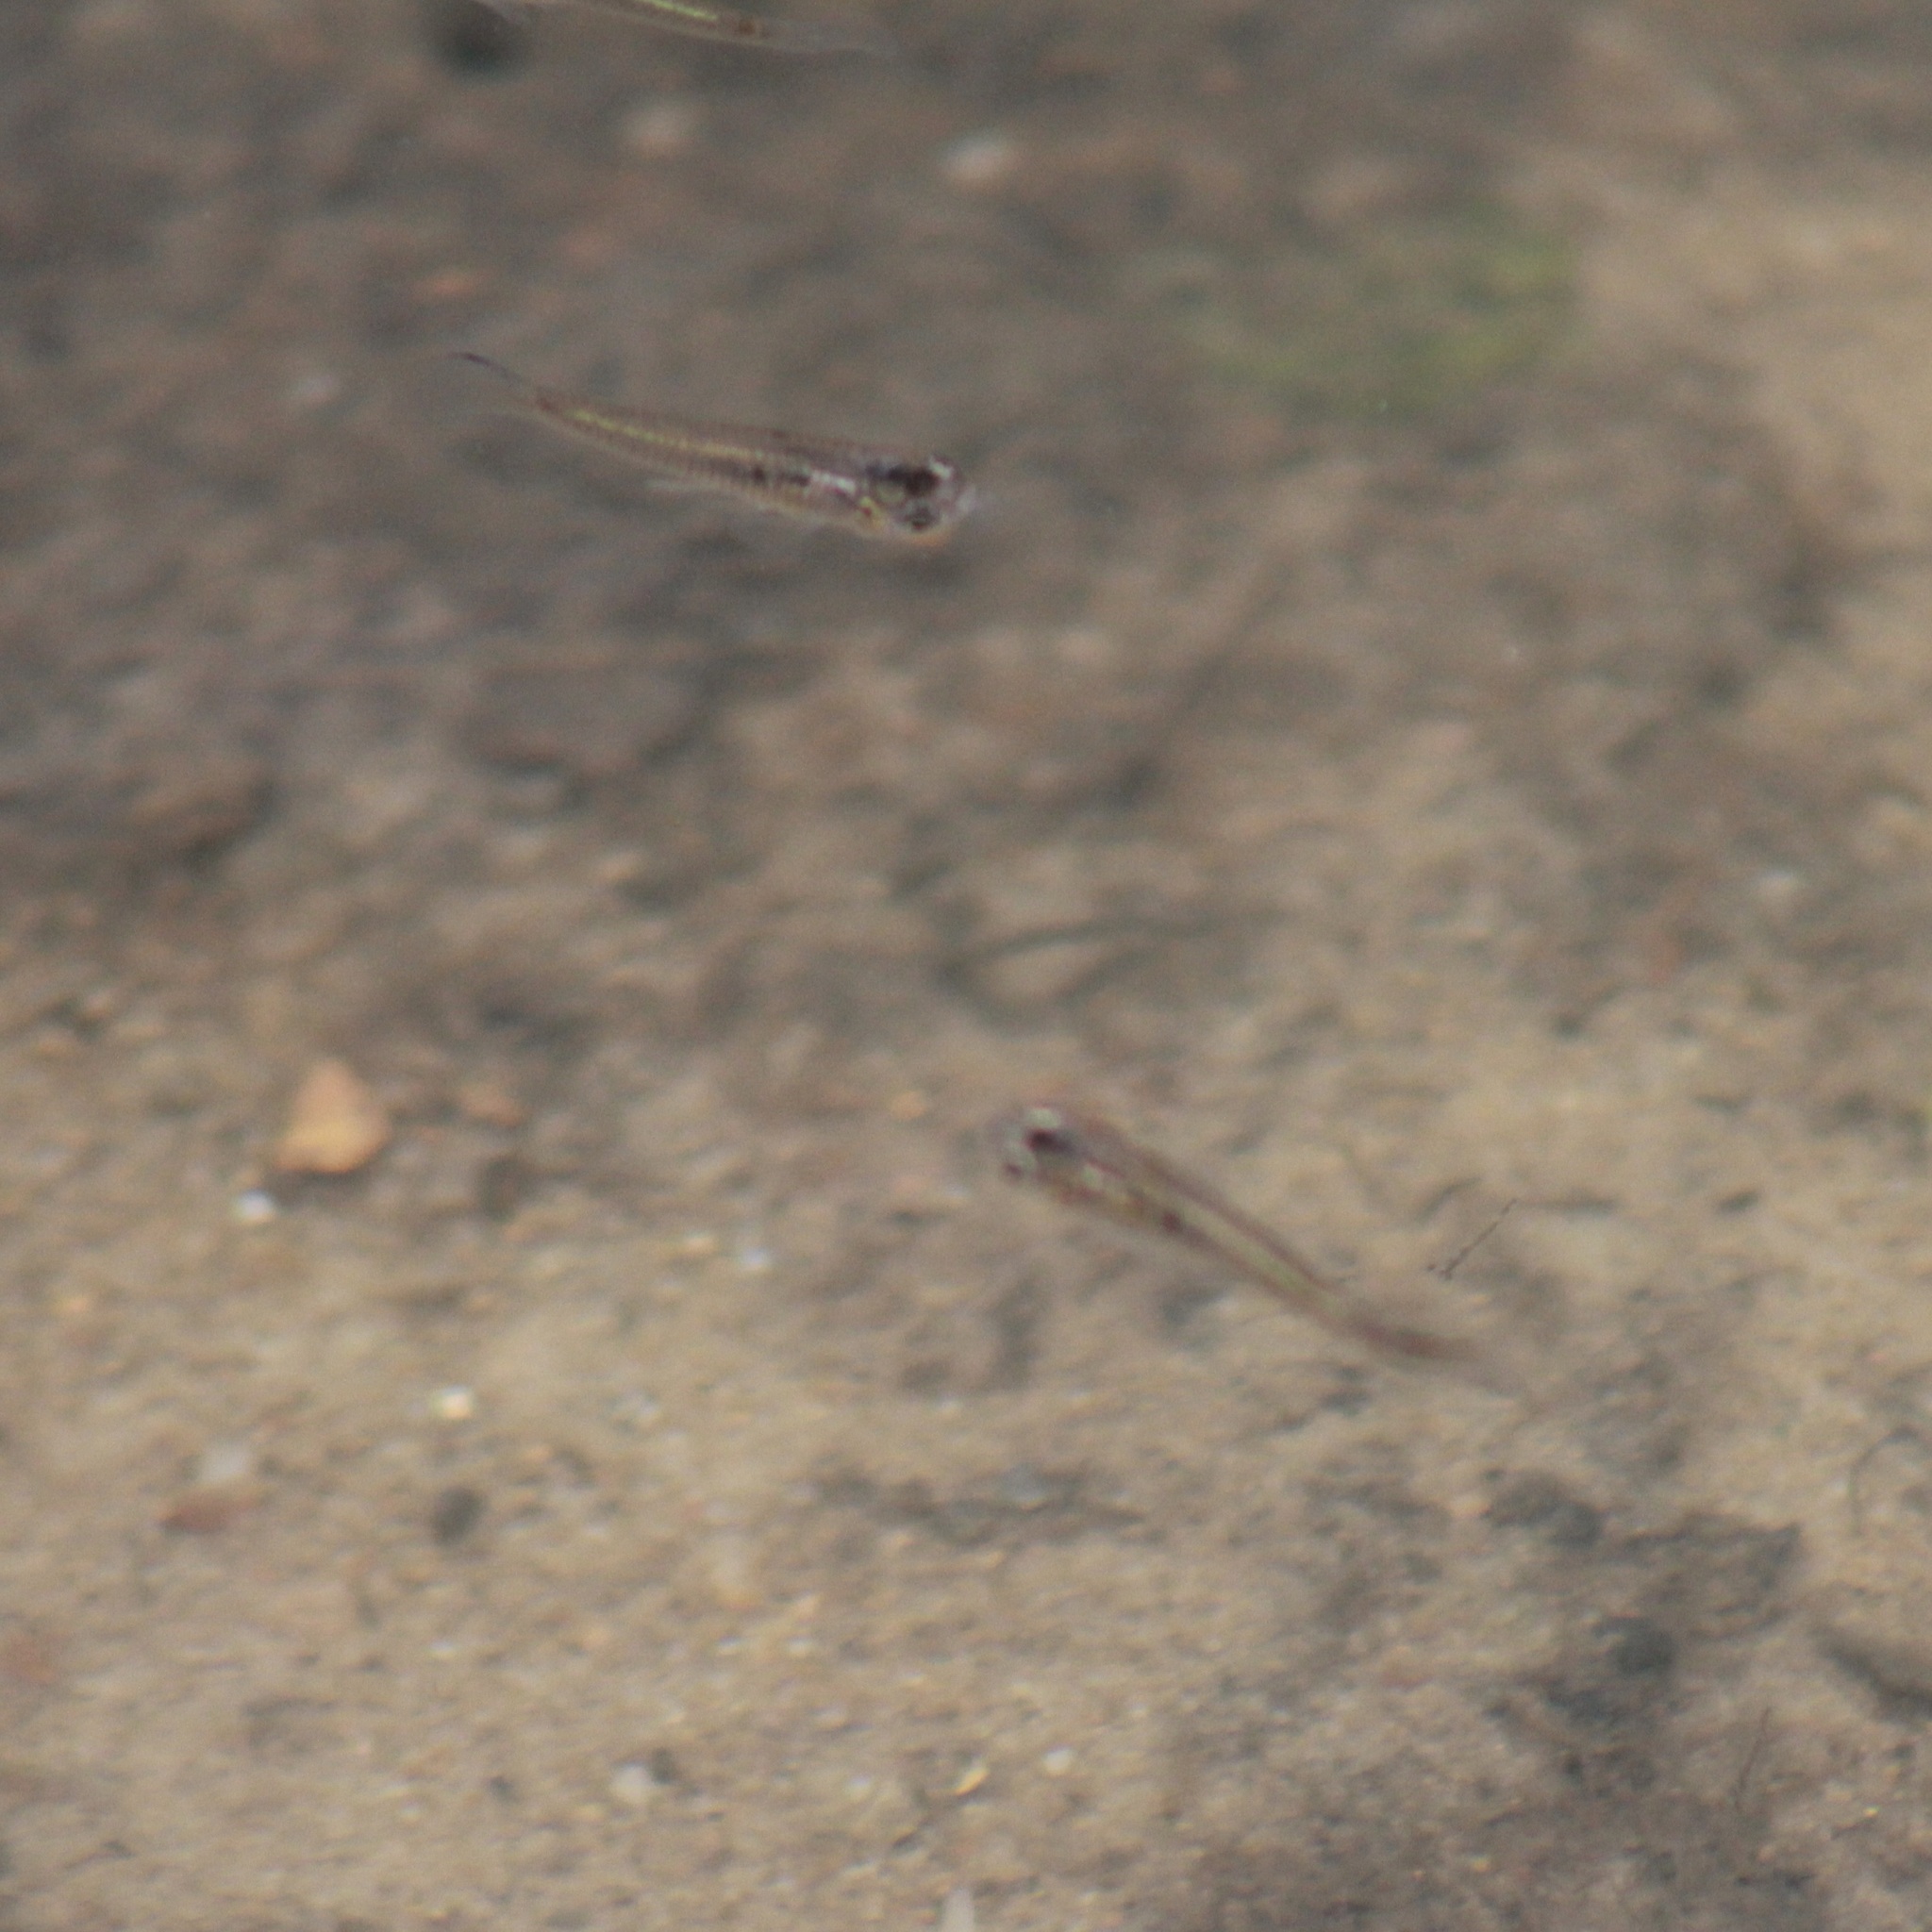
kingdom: Animalia
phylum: Chordata
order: Cyprinodontiformes
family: Poeciliidae
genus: Micropoecilia
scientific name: Micropoecilia picta
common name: Millions
